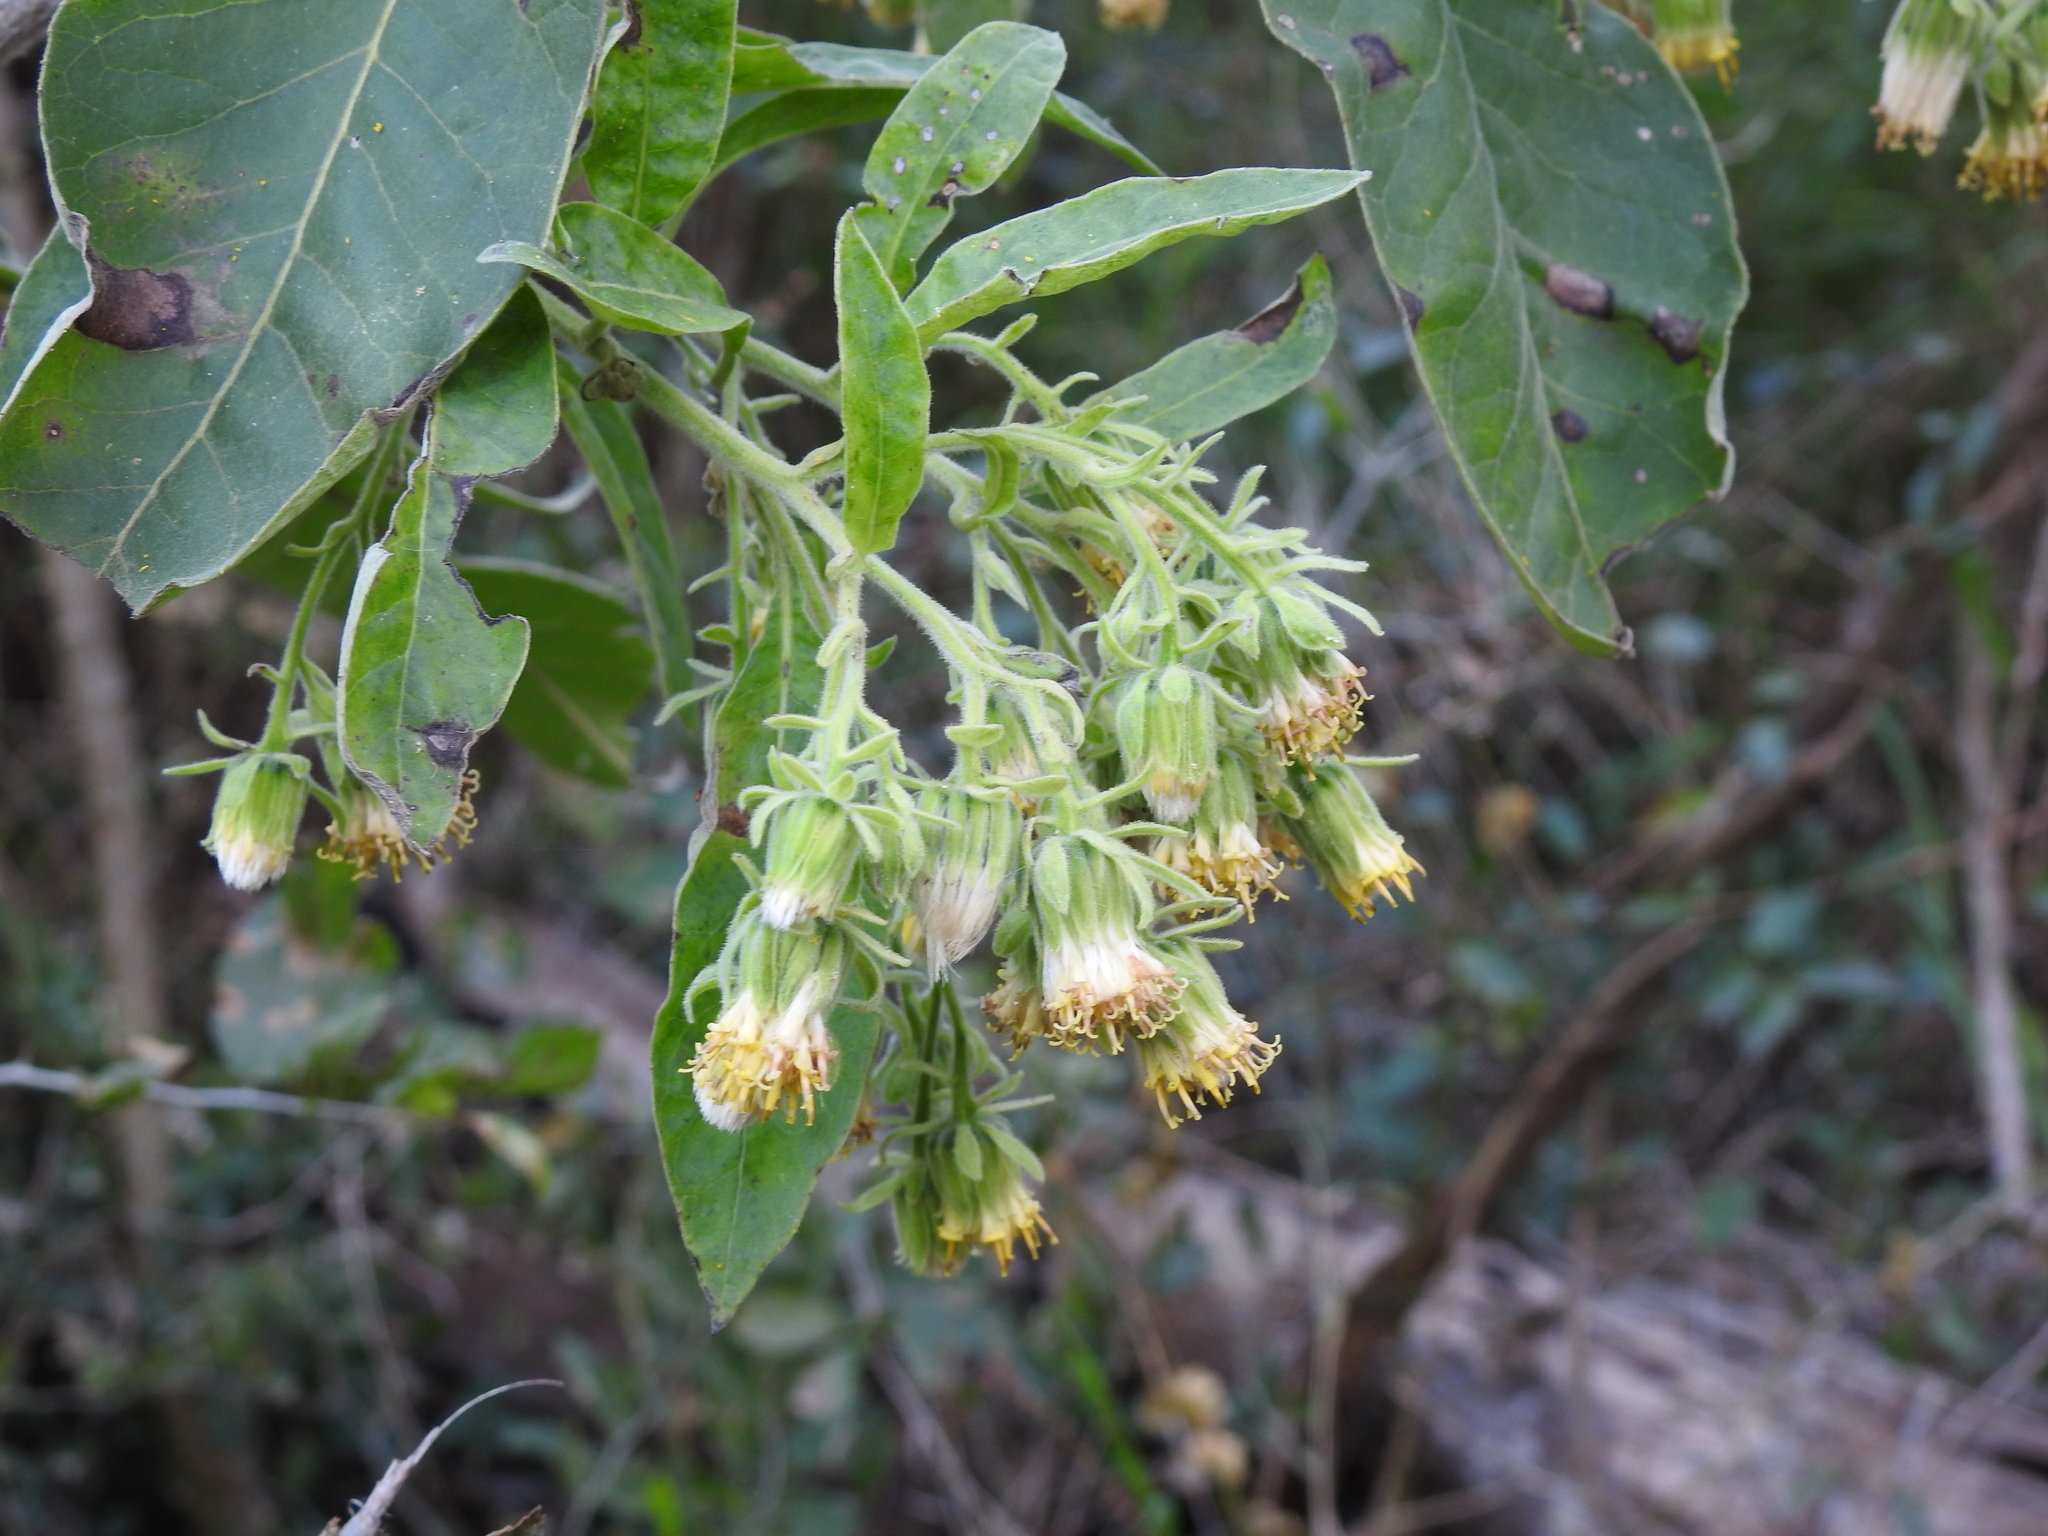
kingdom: Plantae
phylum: Tracheophyta
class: Magnoliopsida
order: Asterales
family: Asteraceae
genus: Trixis
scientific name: Trixis praestans
